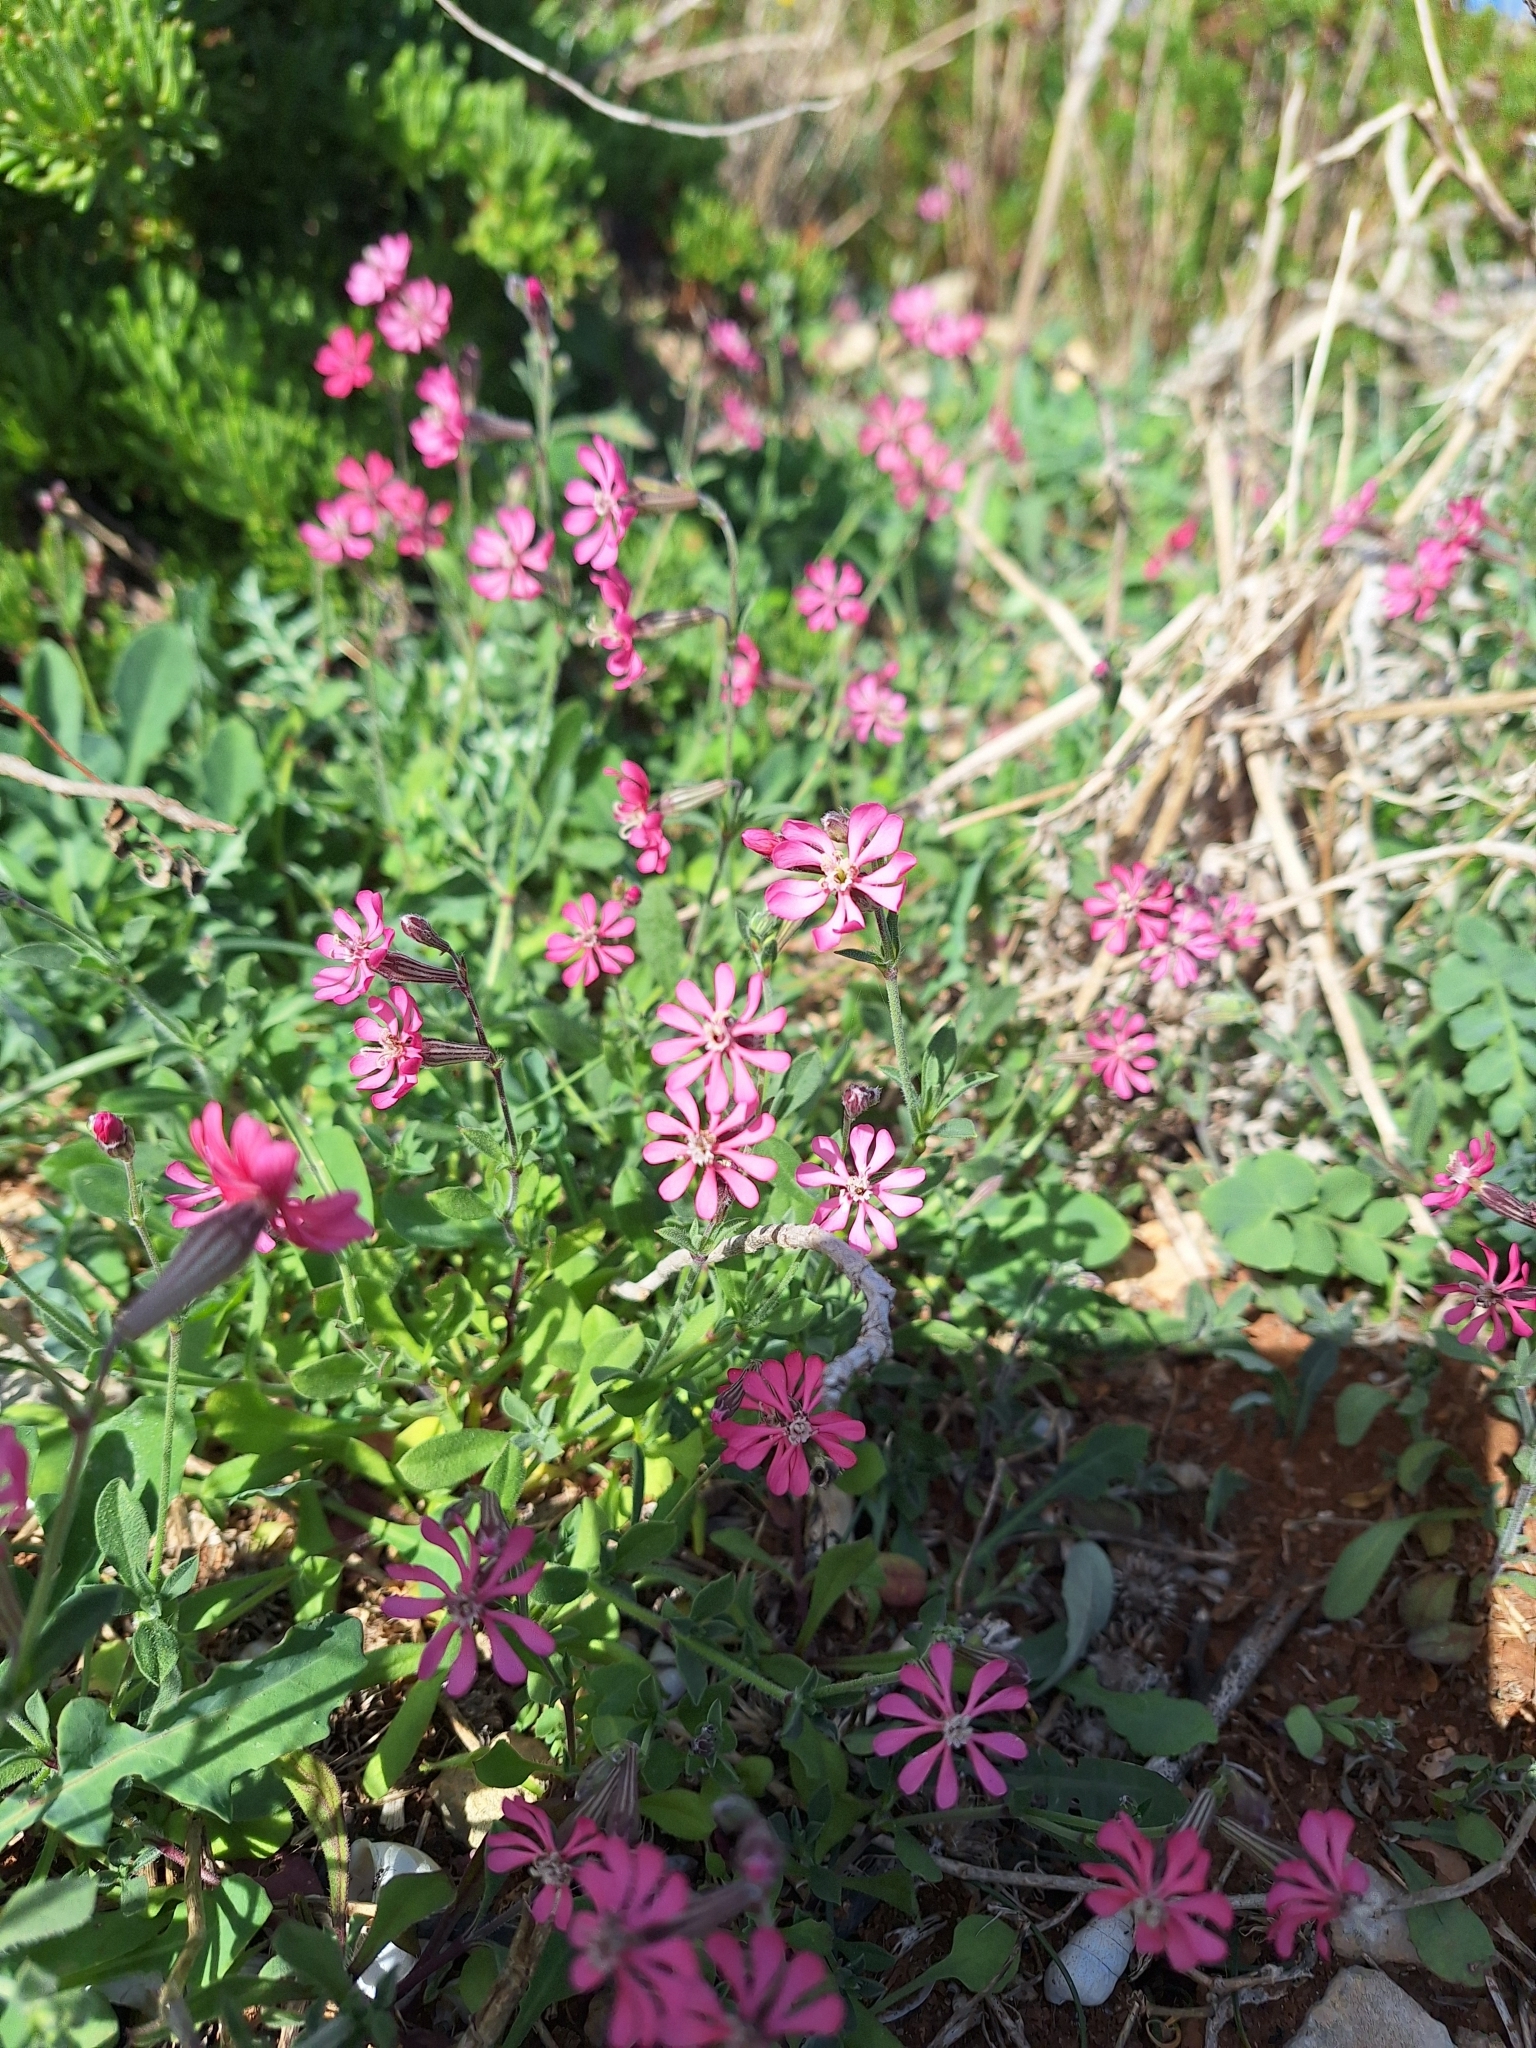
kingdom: Plantae
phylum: Tracheophyta
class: Magnoliopsida
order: Caryophyllales
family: Caryophyllaceae
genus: Silene
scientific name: Silene colorata
